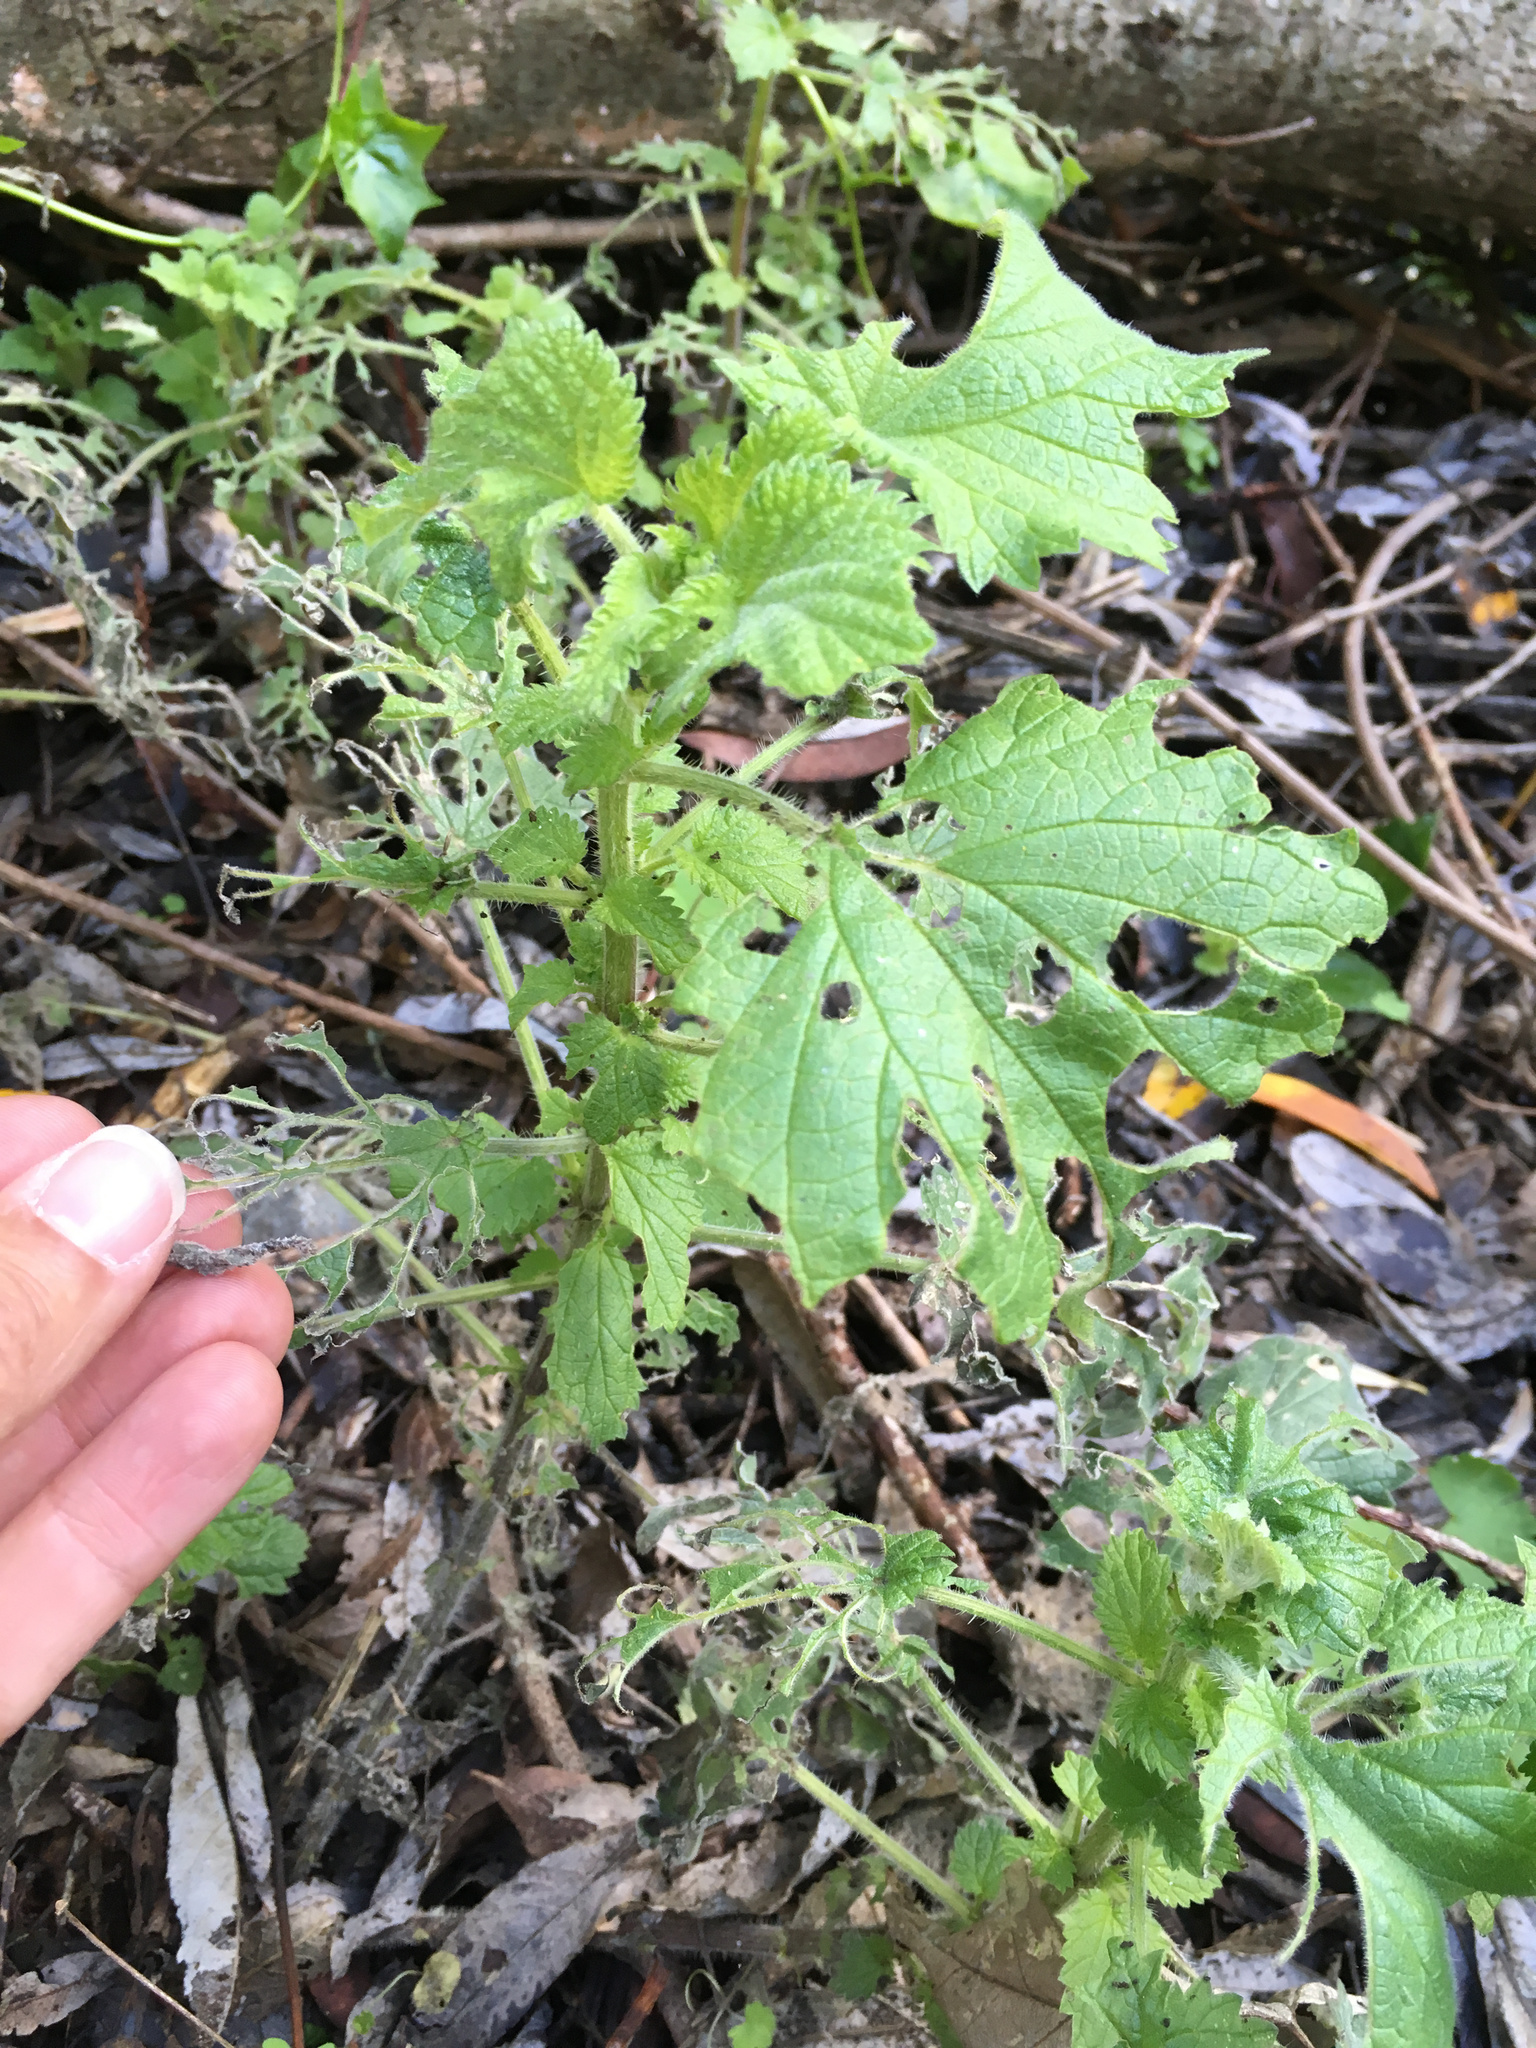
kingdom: Plantae
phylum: Tracheophyta
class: Magnoliopsida
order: Rosales
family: Urticaceae
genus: Urtica
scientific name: Urtica dioica
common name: Common nettle
